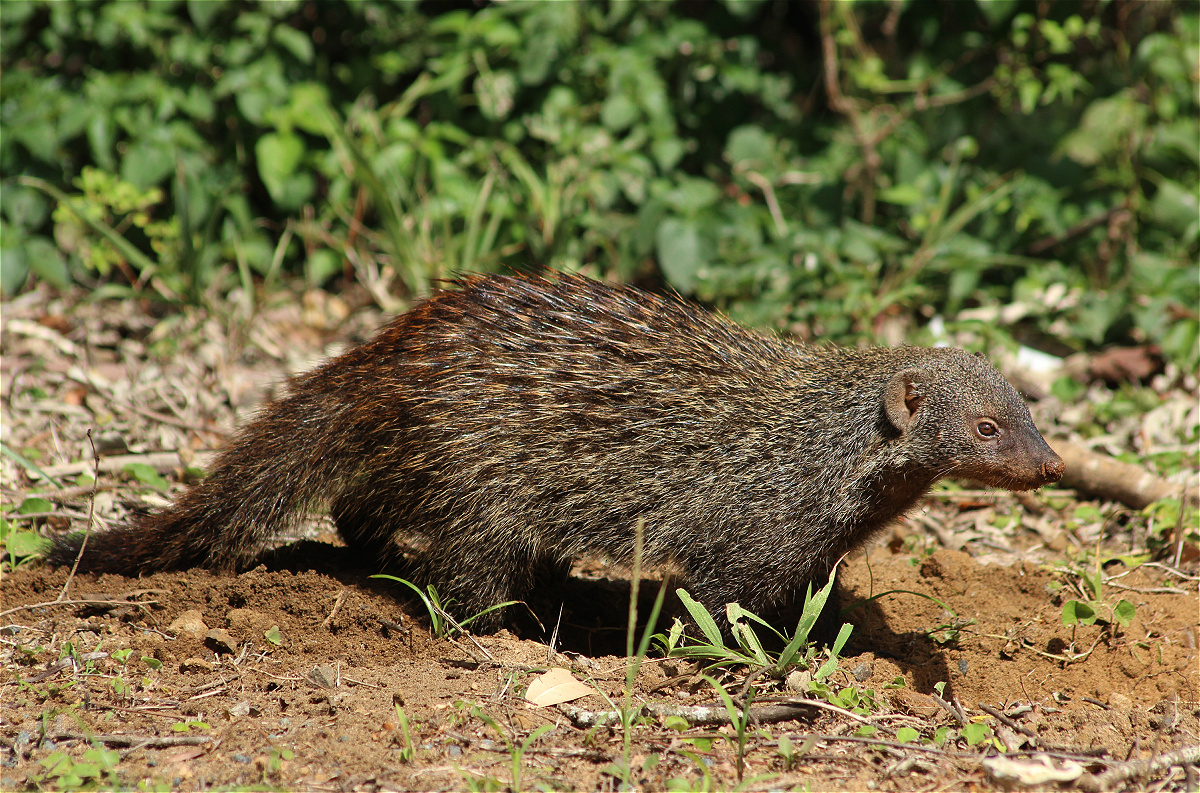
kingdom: Animalia
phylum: Chordata
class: Mammalia
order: Carnivora
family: Herpestidae
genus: Mungos
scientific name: Mungos mungo
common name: Banded mongoose
